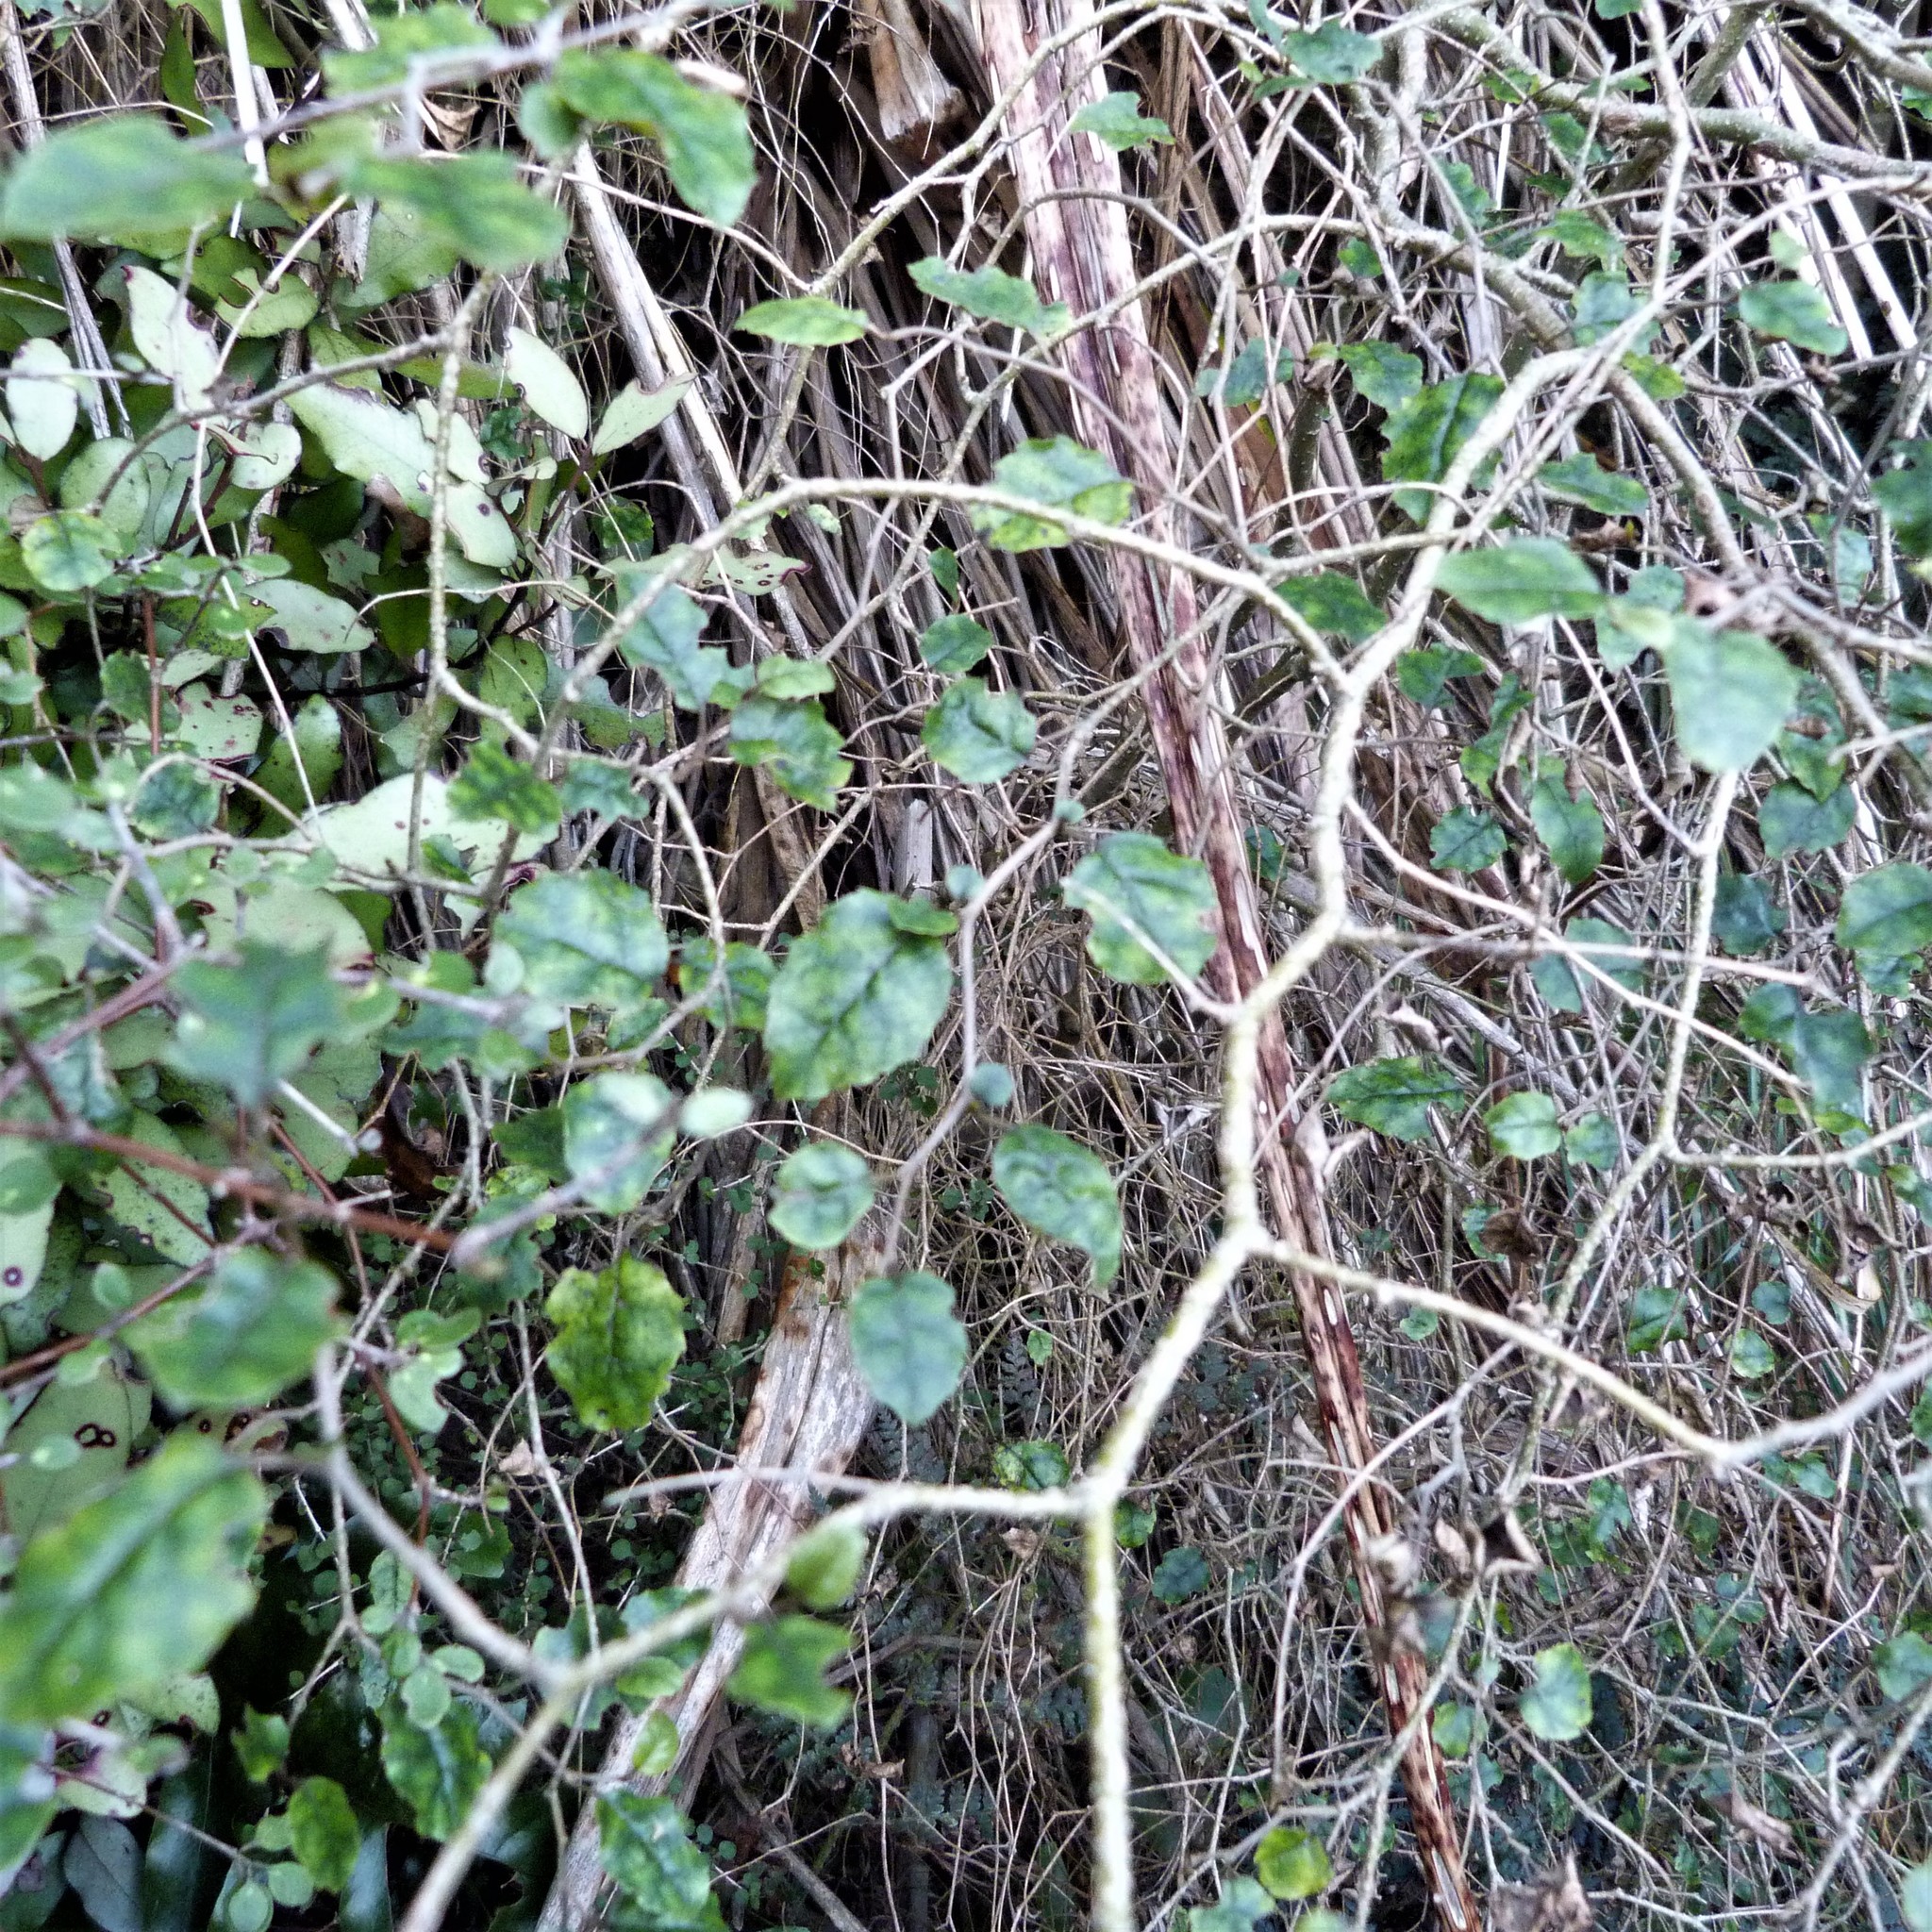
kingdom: Plantae
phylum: Tracheophyta
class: Magnoliopsida
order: Asterales
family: Rousseaceae
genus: Carpodetus
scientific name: Carpodetus serratus
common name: White mapau
